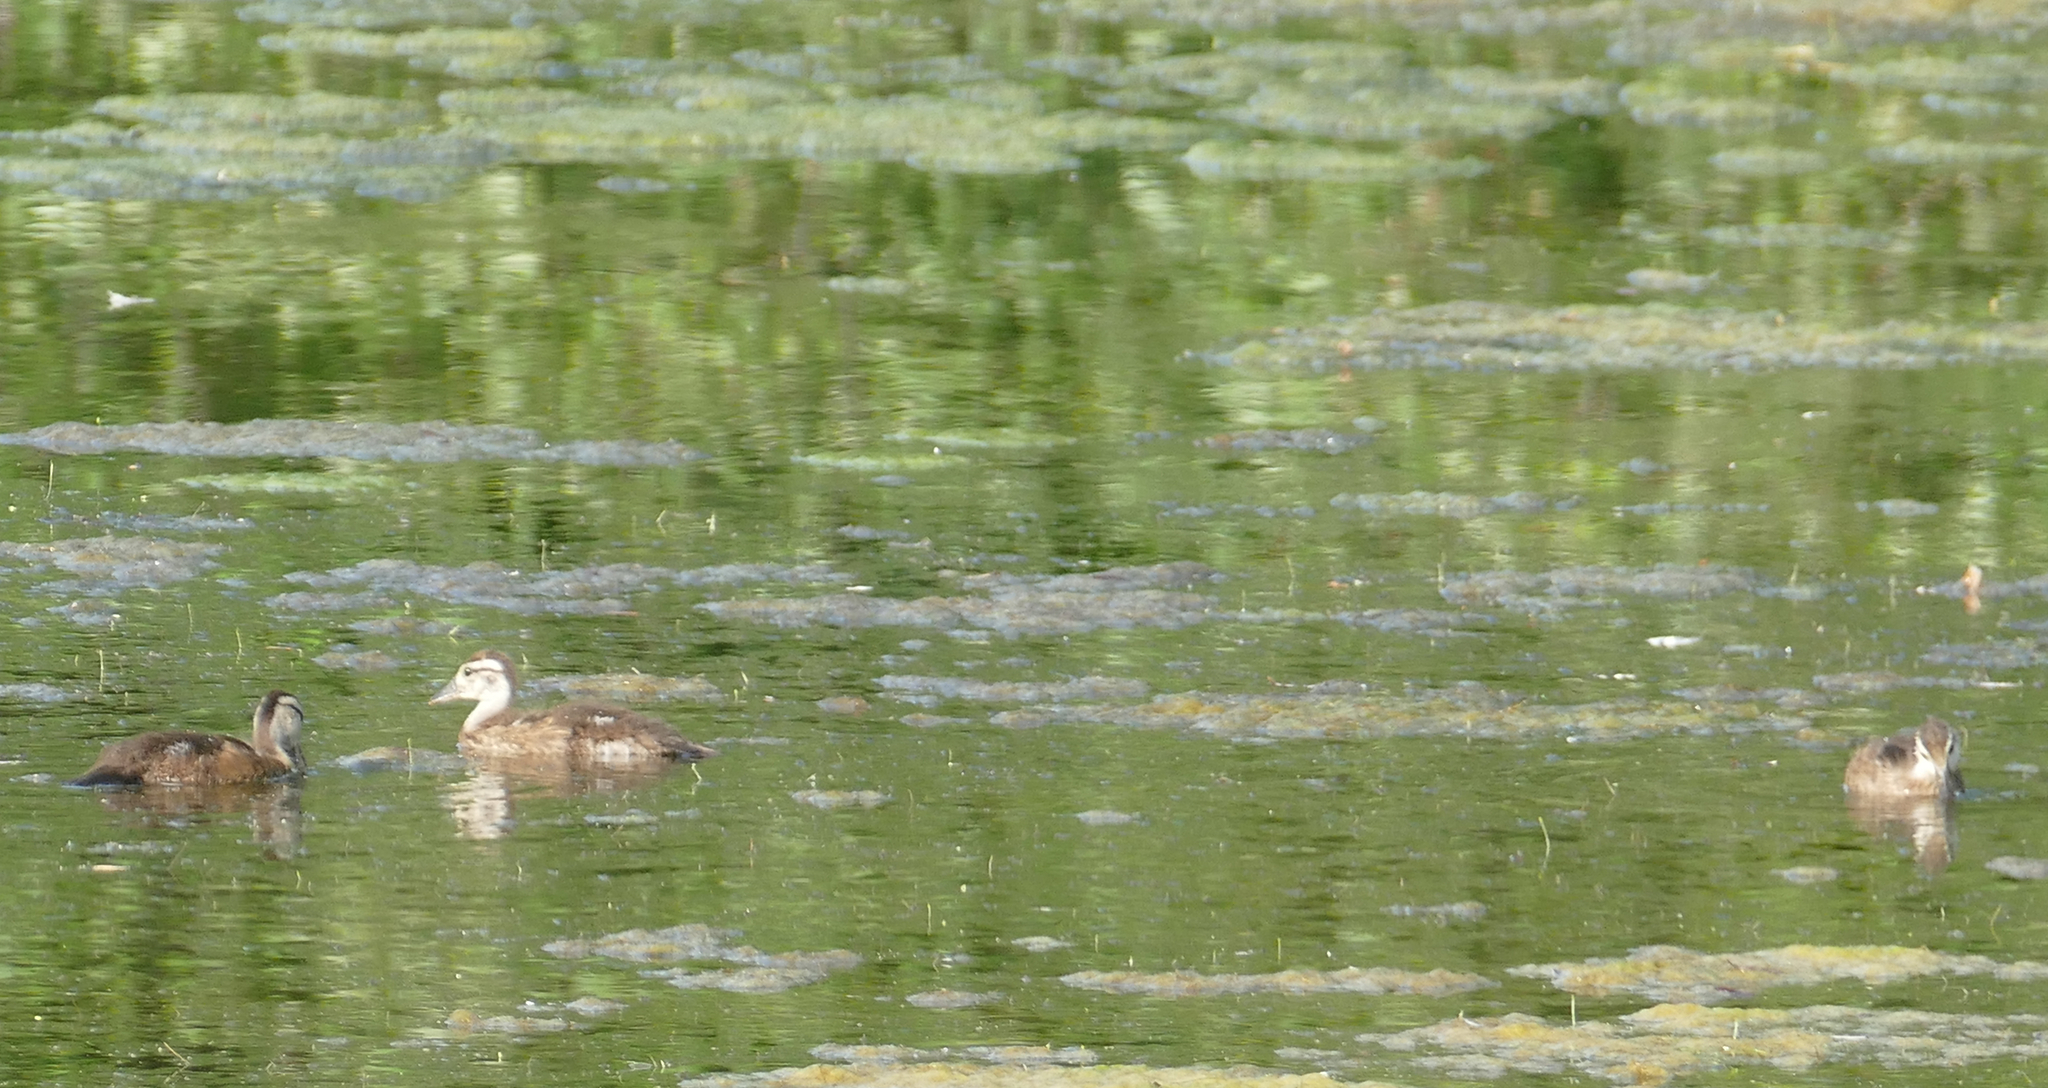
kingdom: Animalia
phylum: Chordata
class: Aves
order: Anseriformes
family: Anatidae
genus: Aix
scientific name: Aix sponsa
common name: Wood duck
